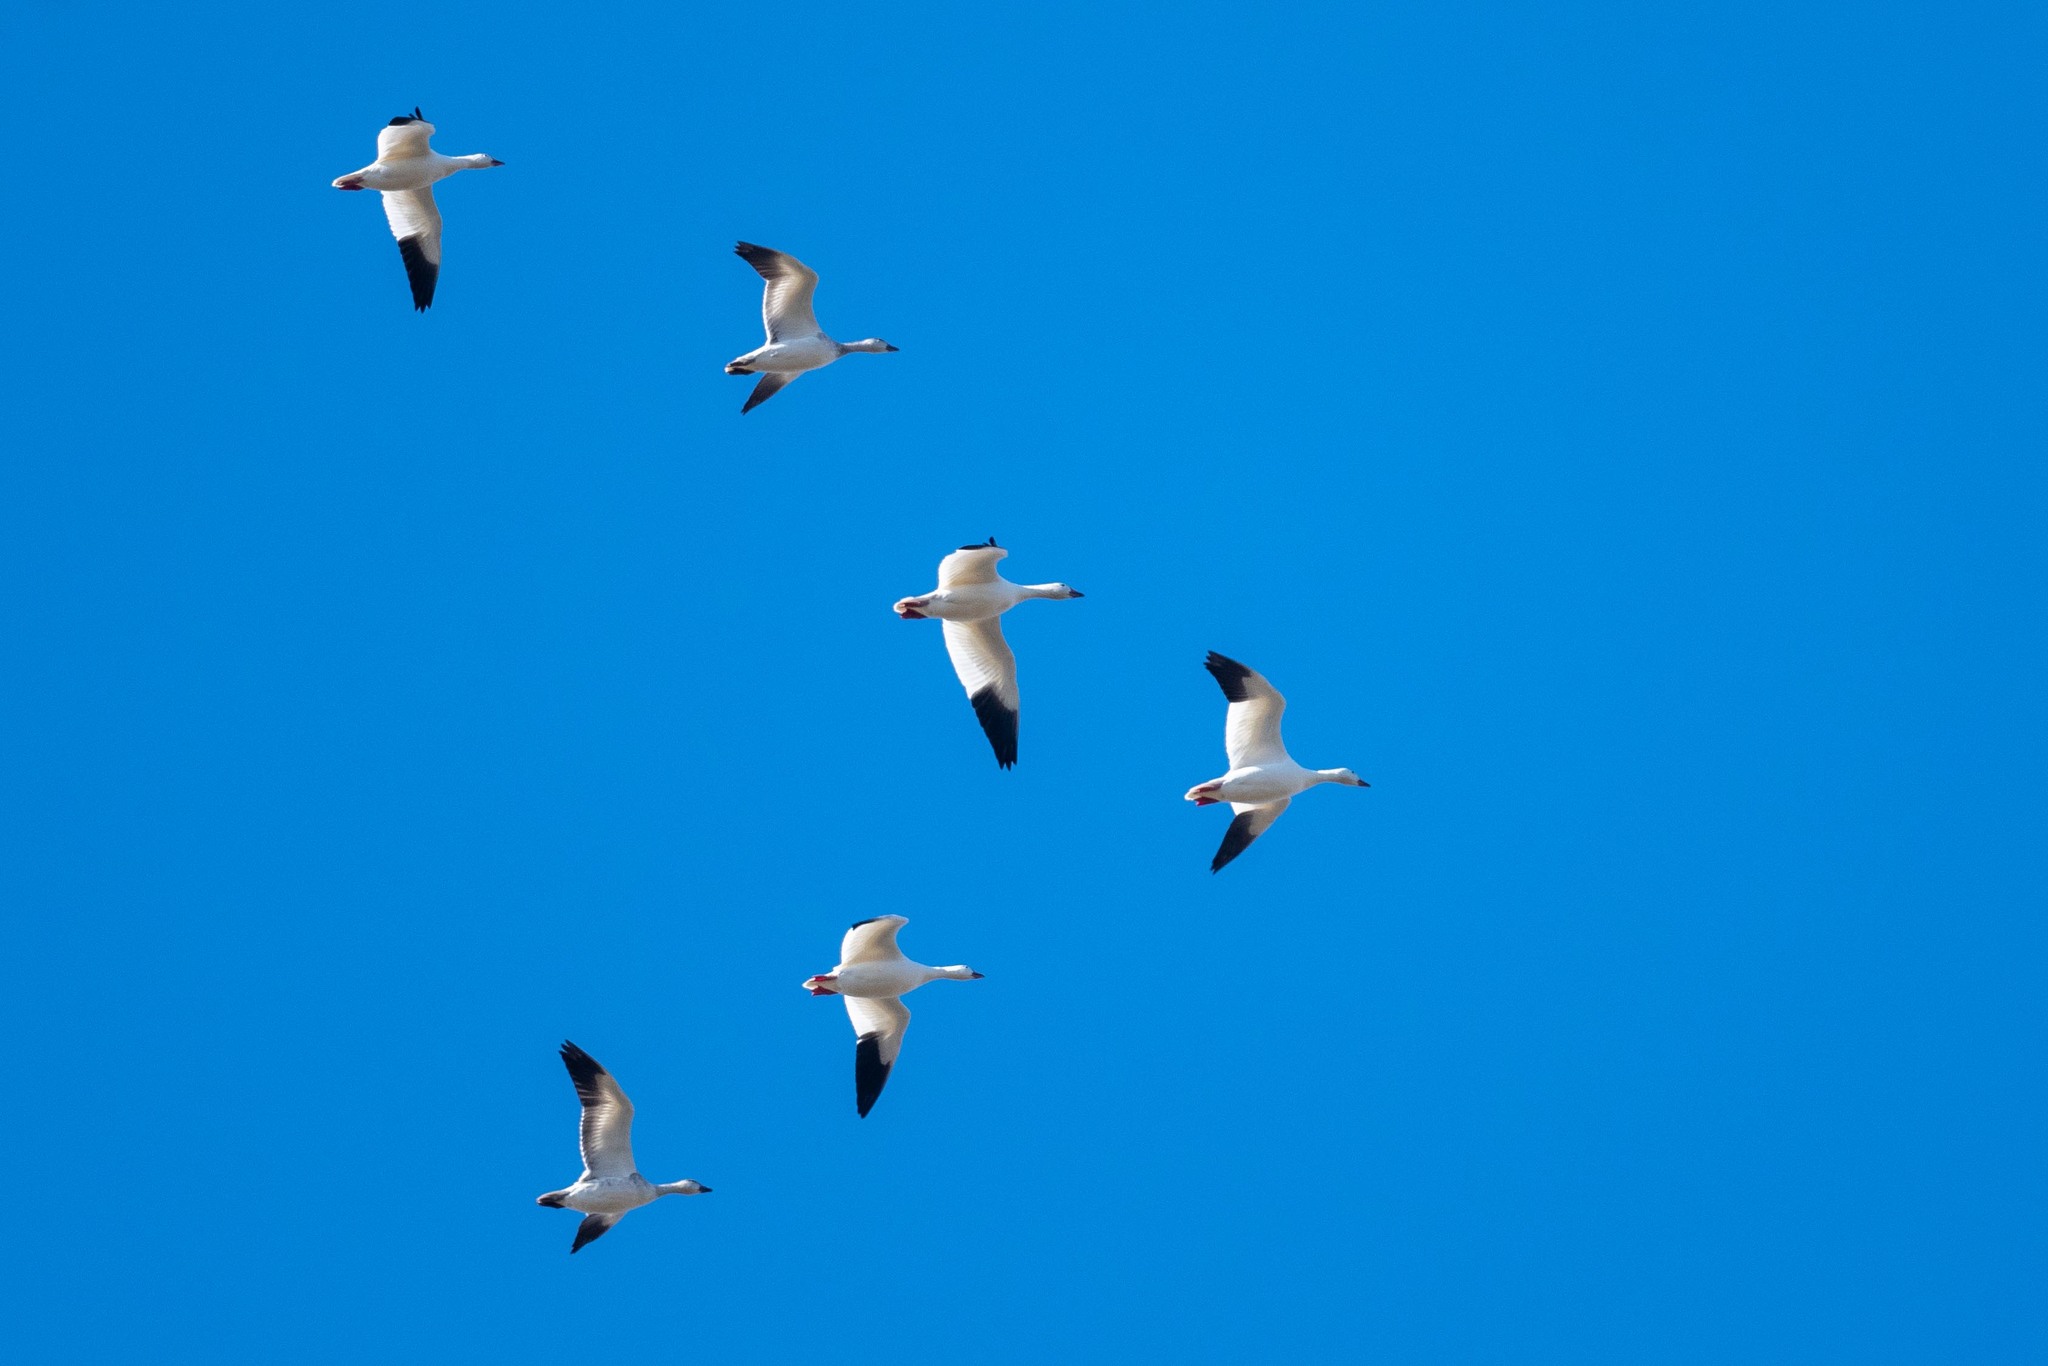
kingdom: Animalia
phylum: Chordata
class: Aves
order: Anseriformes
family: Anatidae
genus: Anser
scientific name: Anser caerulescens
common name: Snow goose
